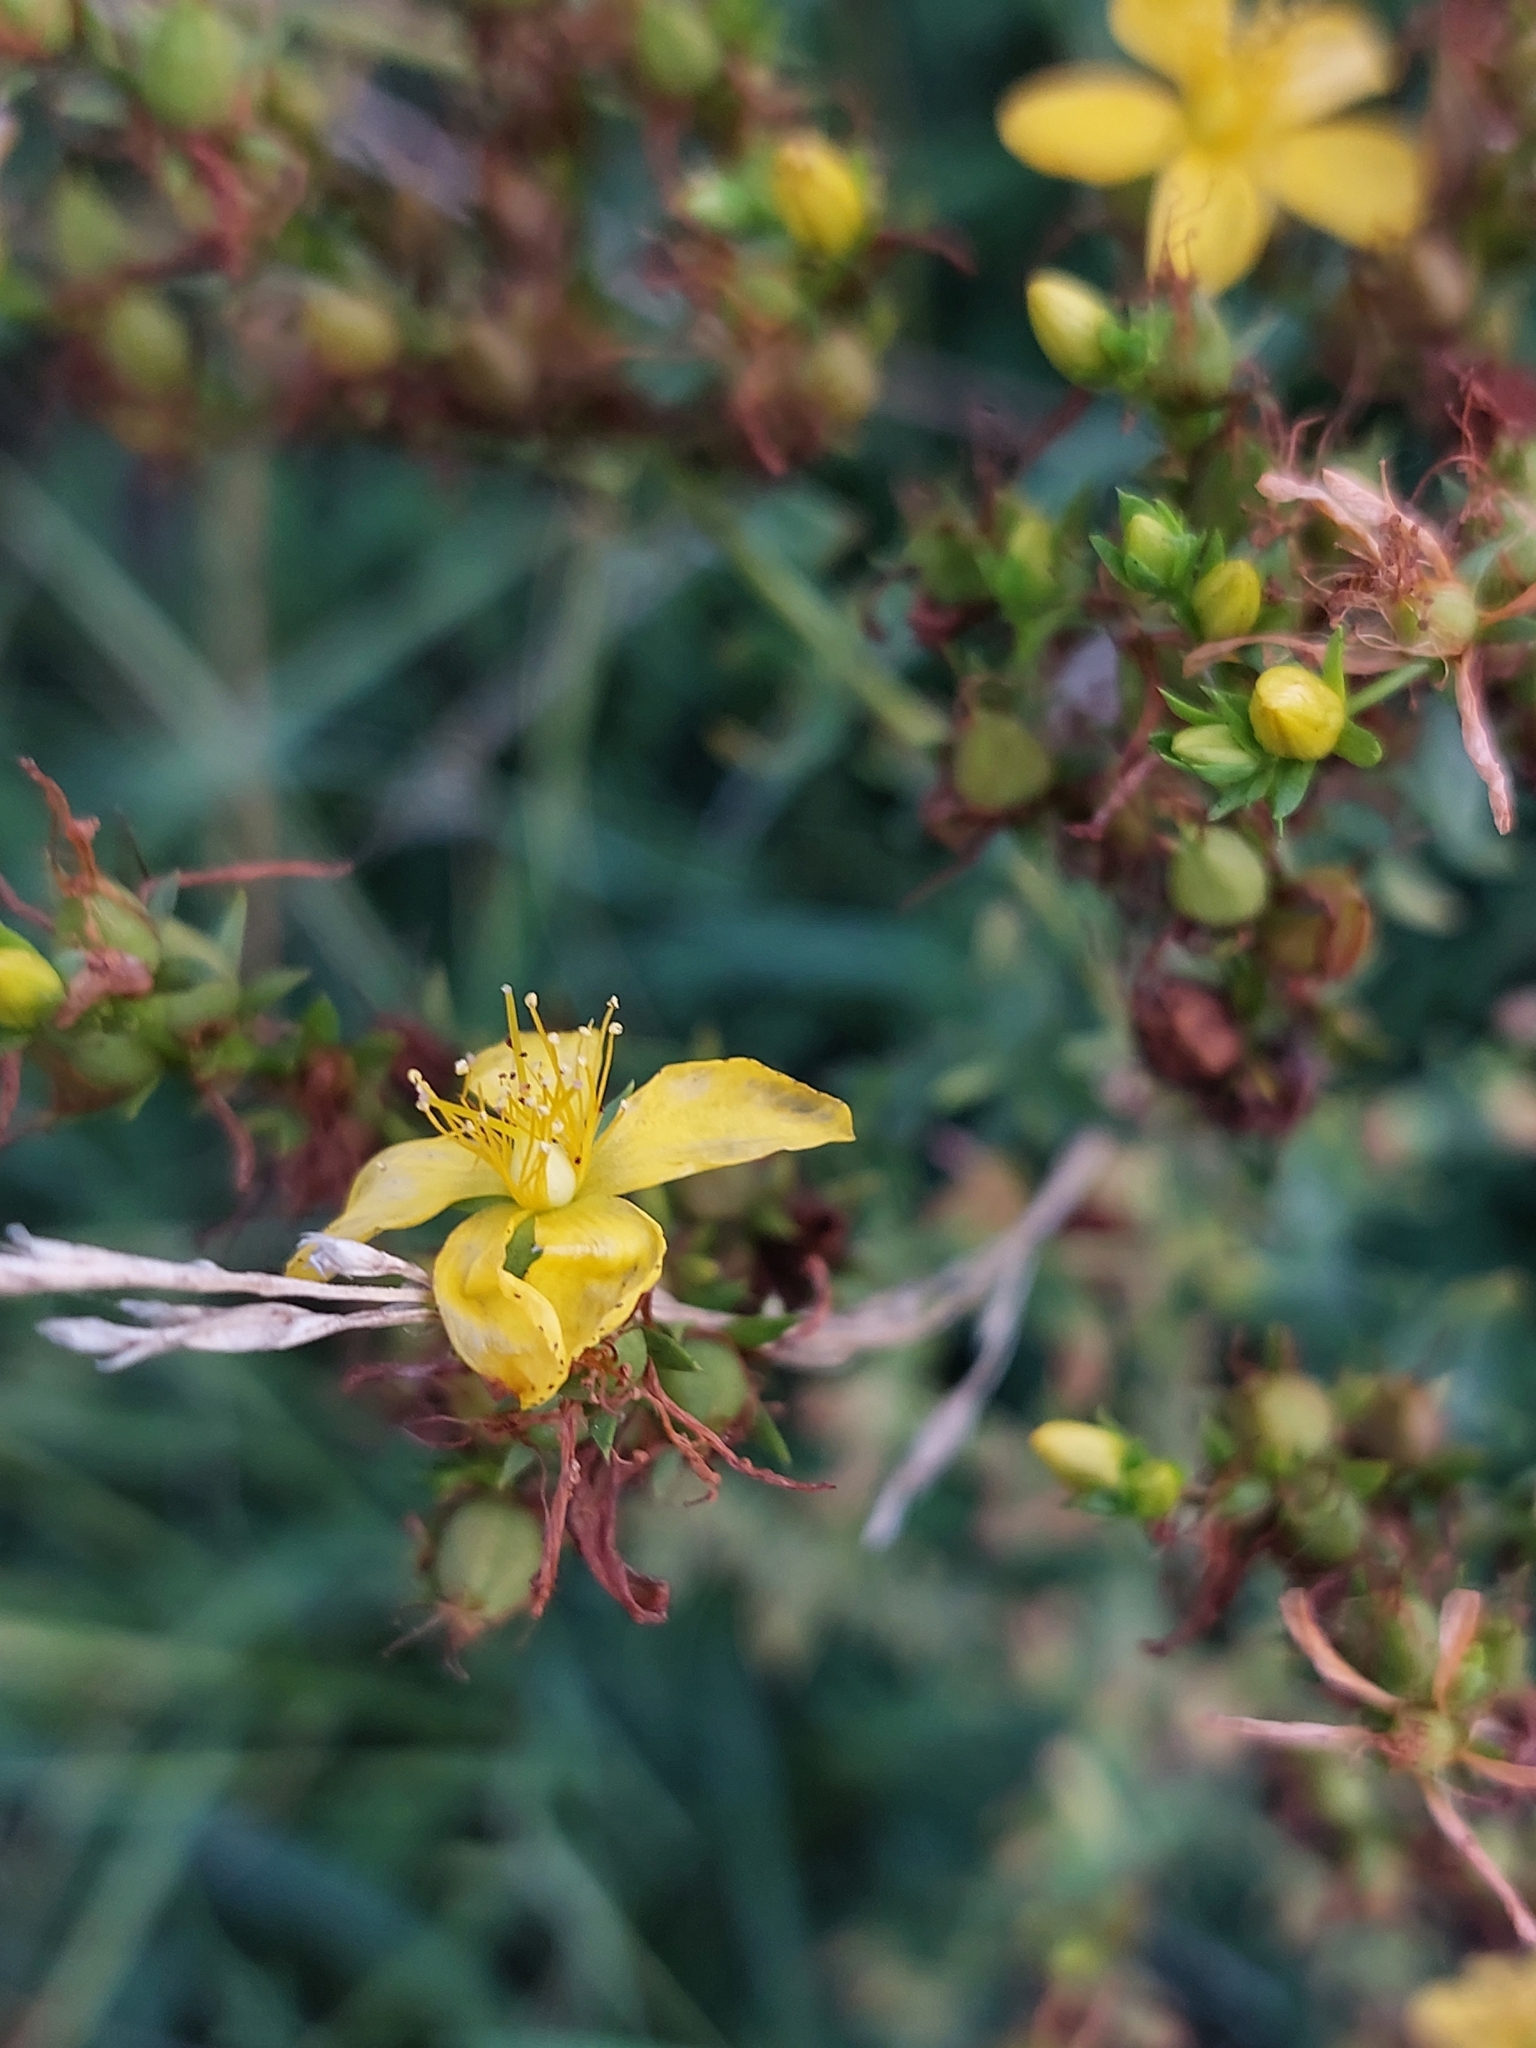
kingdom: Plantae
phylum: Tracheophyta
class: Magnoliopsida
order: Malpighiales
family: Hypericaceae
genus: Hypericum
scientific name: Hypericum perforatum
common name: Common st. johnswort
